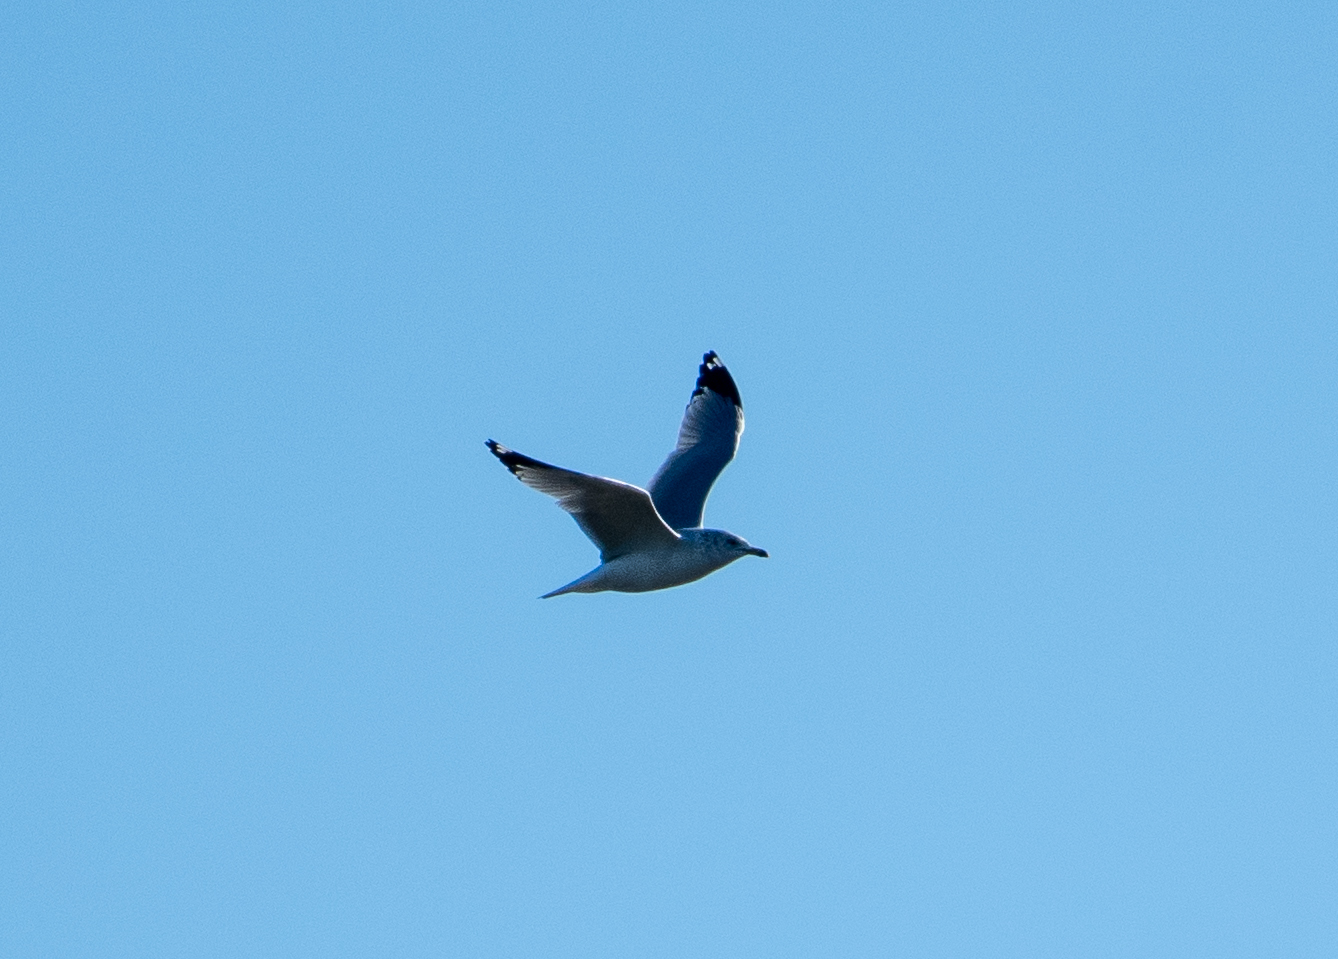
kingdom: Animalia
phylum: Chordata
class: Aves
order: Charadriiformes
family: Laridae
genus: Larus
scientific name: Larus delawarensis
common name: Ring-billed gull
